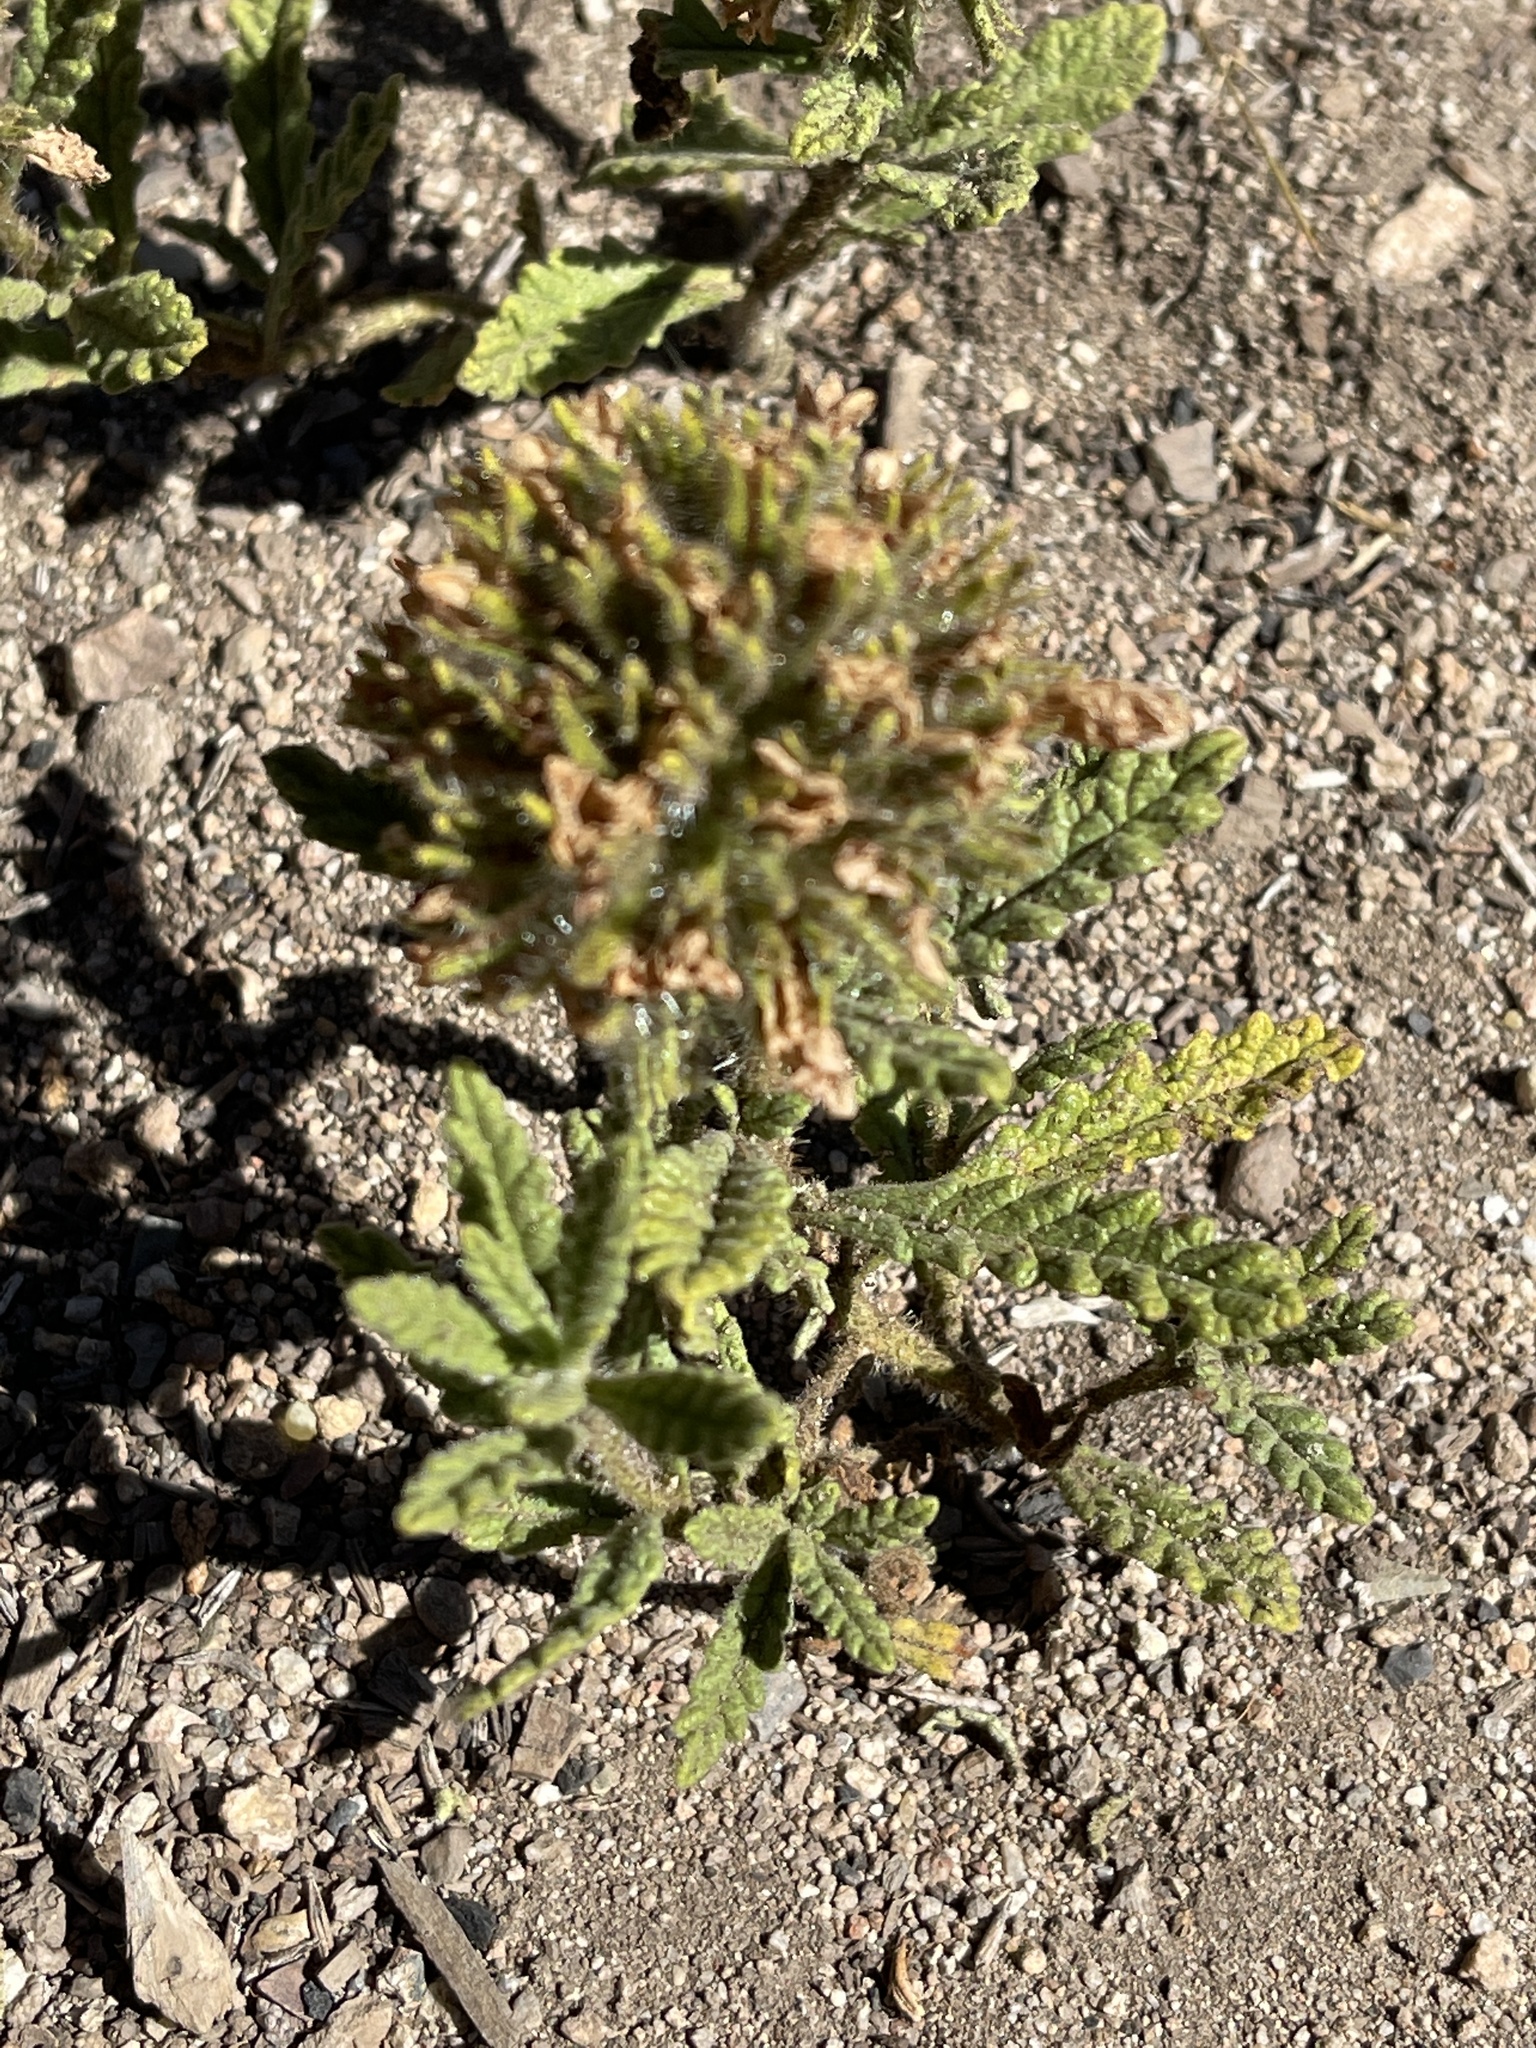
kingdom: Plantae
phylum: Tracheophyta
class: Magnoliopsida
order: Boraginales
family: Namaceae
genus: Nama
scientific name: Nama rothrockii
